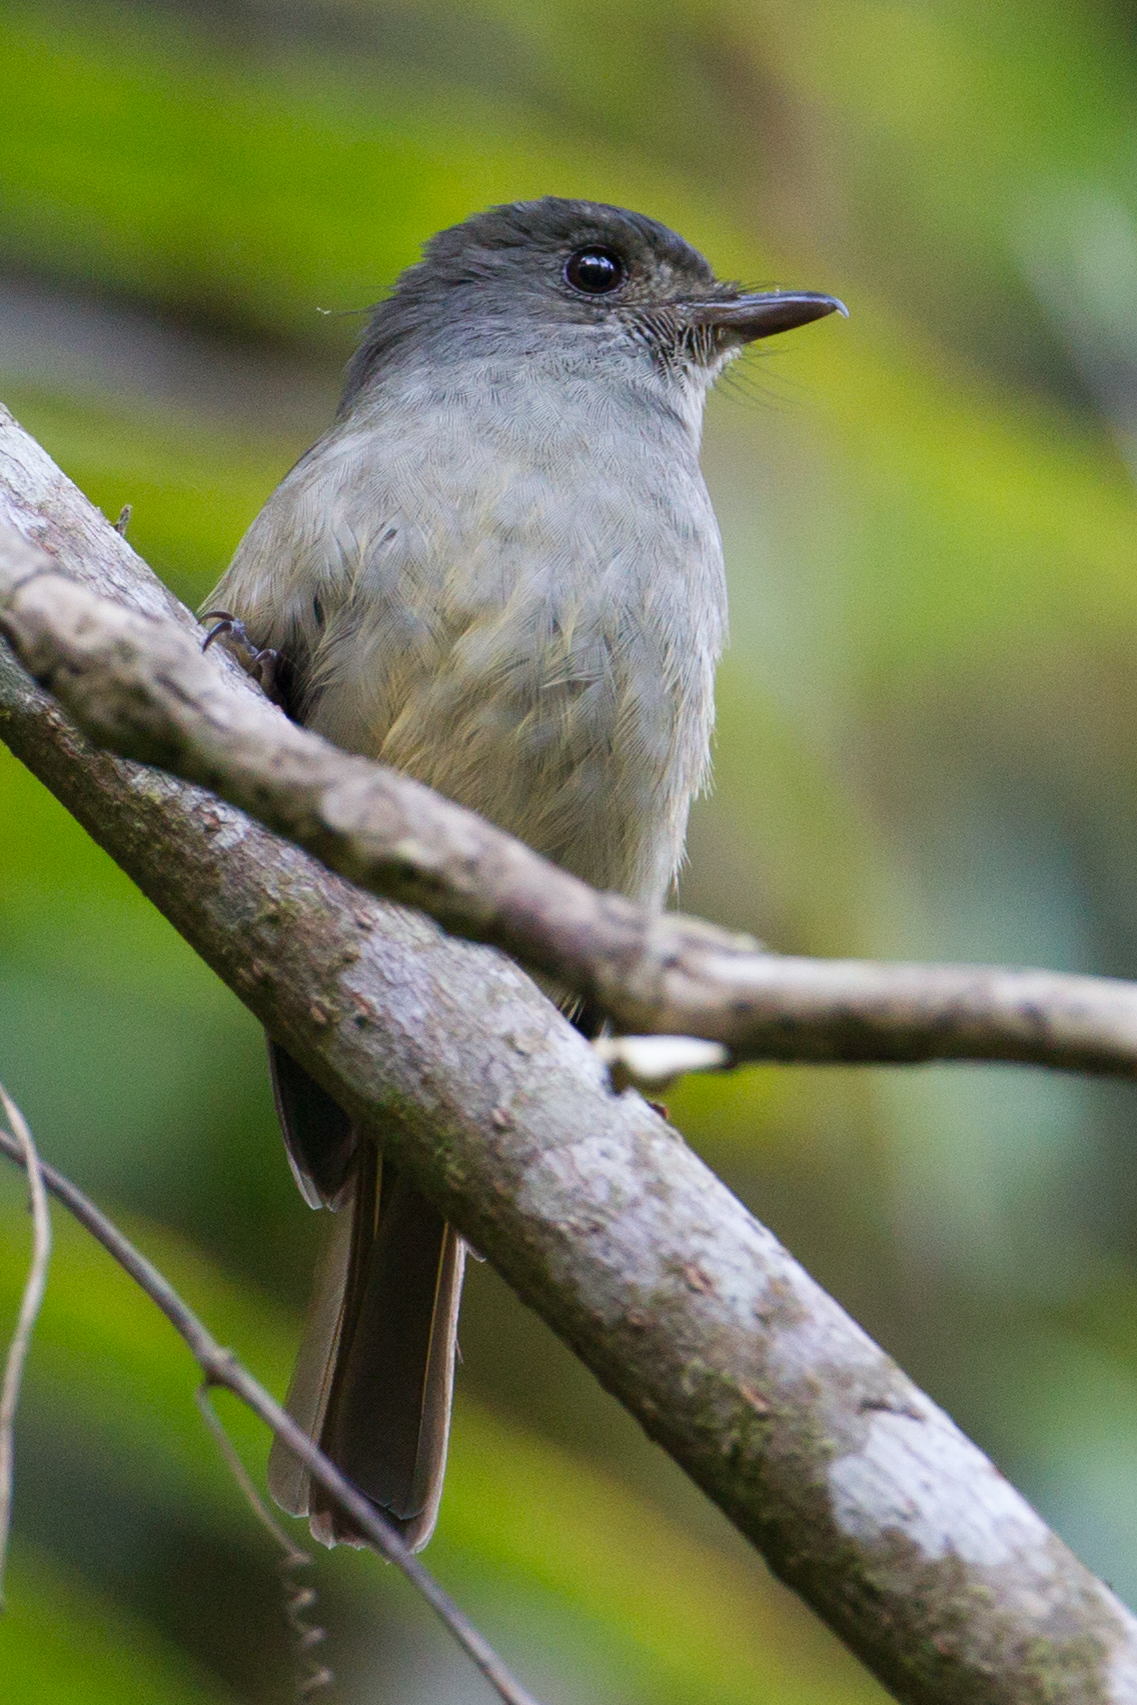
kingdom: Animalia
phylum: Chordata
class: Aves
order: Passeriformes
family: Muscicapidae
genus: Cyornis
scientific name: Cyornis sanfordi
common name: Matinan blue flycatcher
